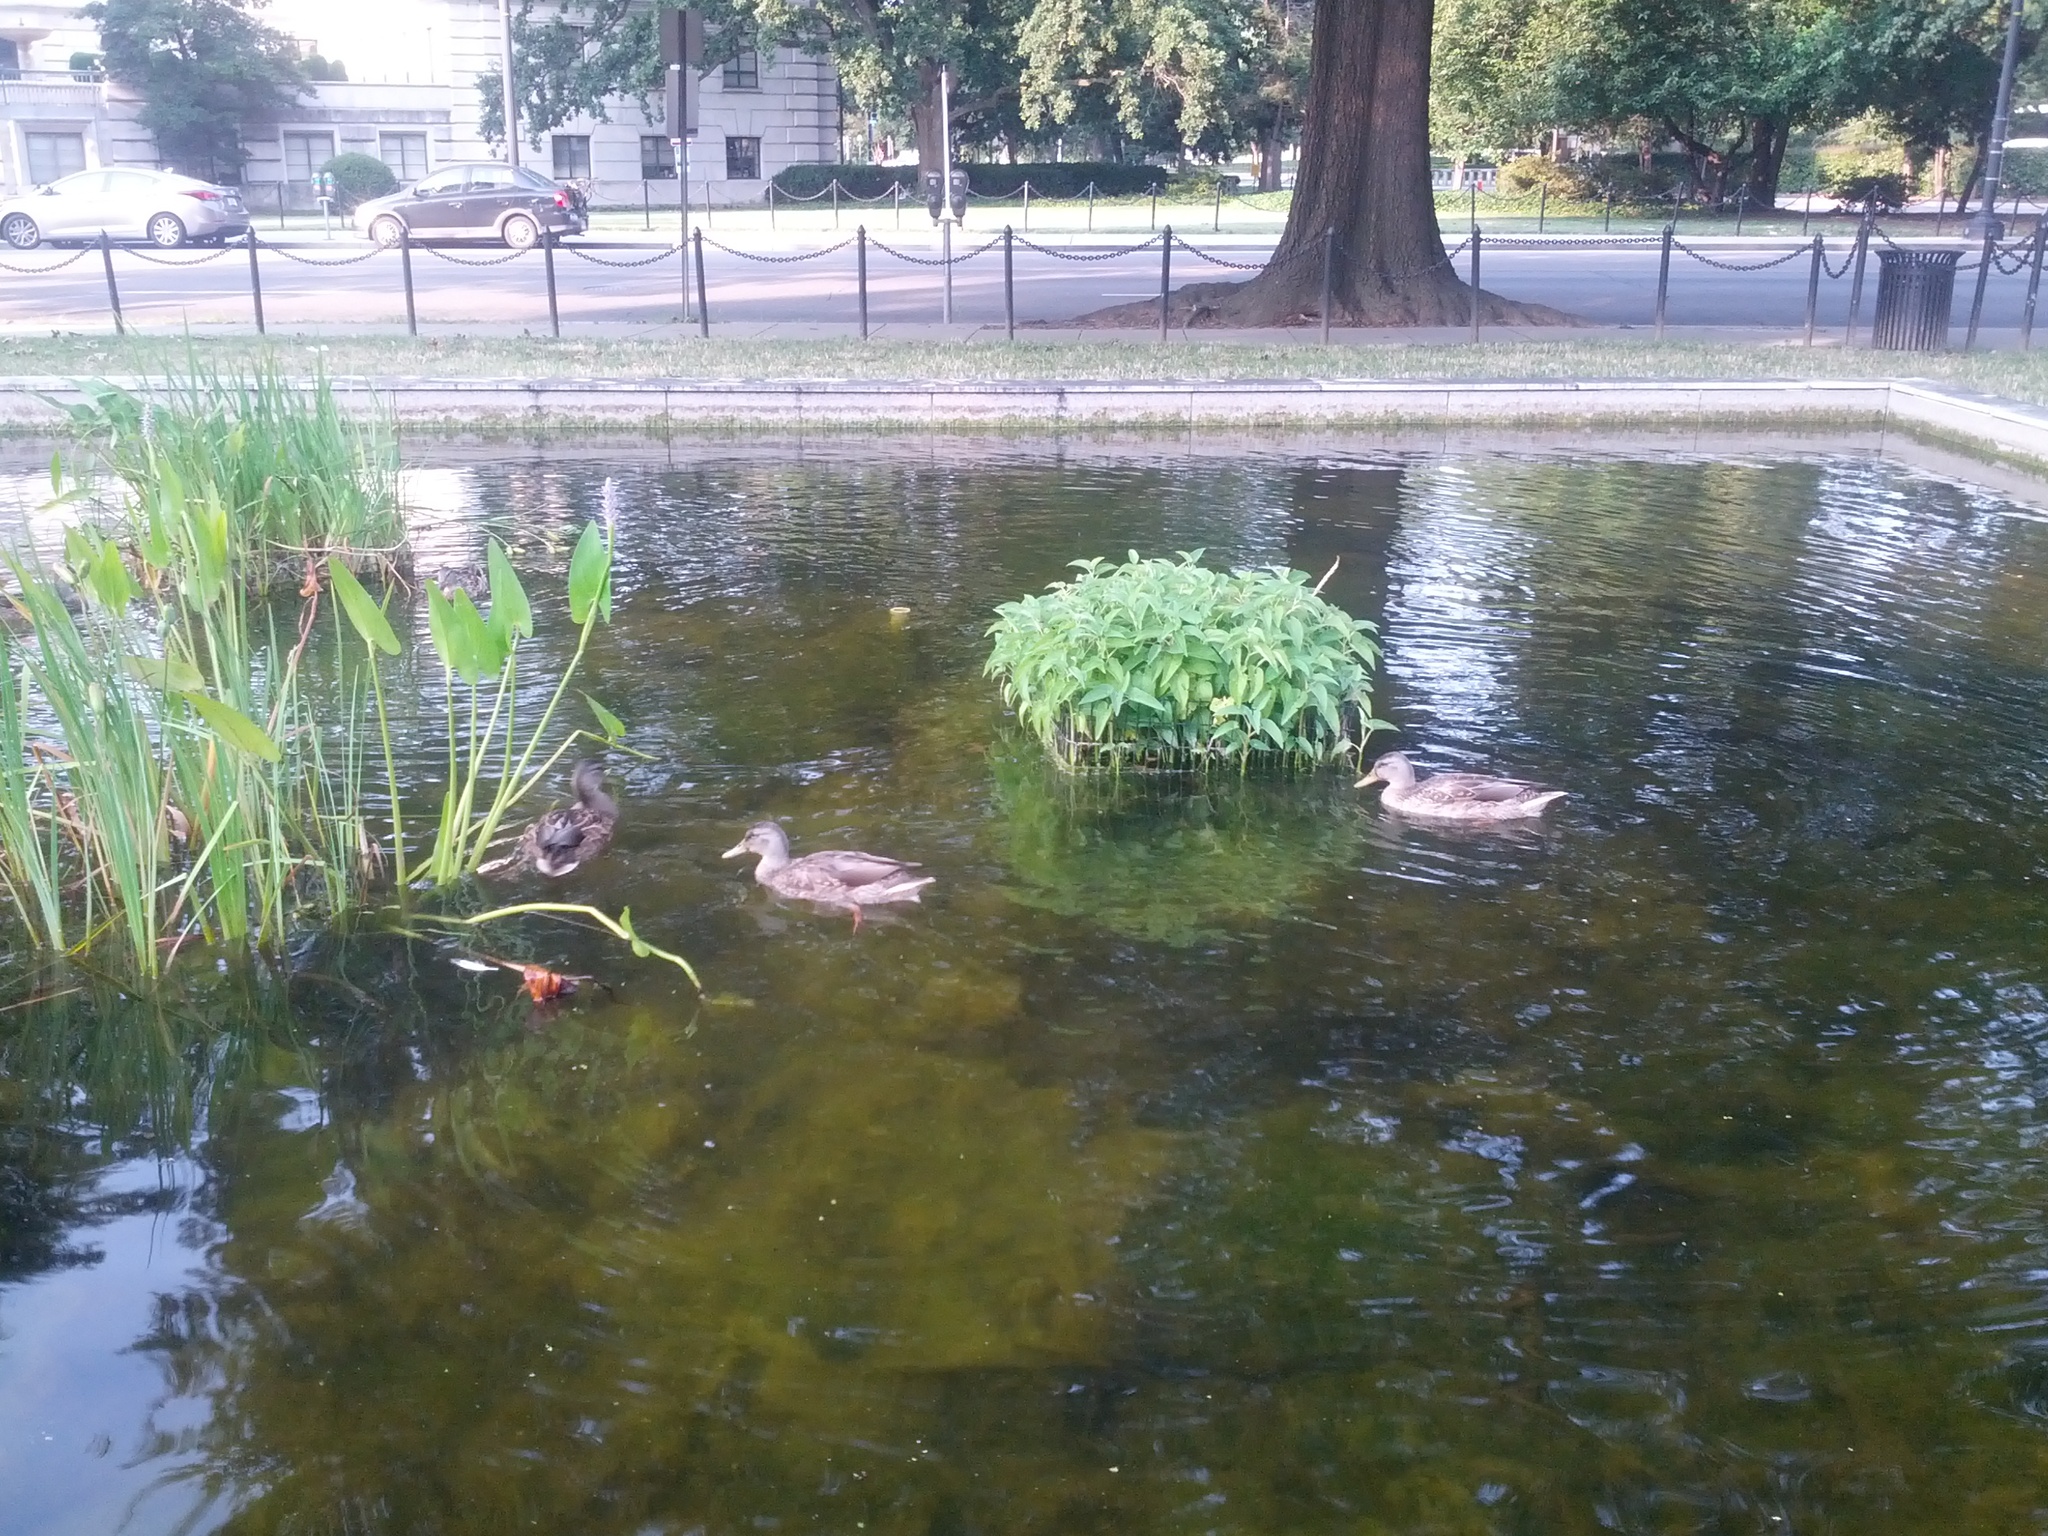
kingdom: Animalia
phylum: Chordata
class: Aves
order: Anseriformes
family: Anatidae
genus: Anas
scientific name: Anas platyrhynchos
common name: Mallard
